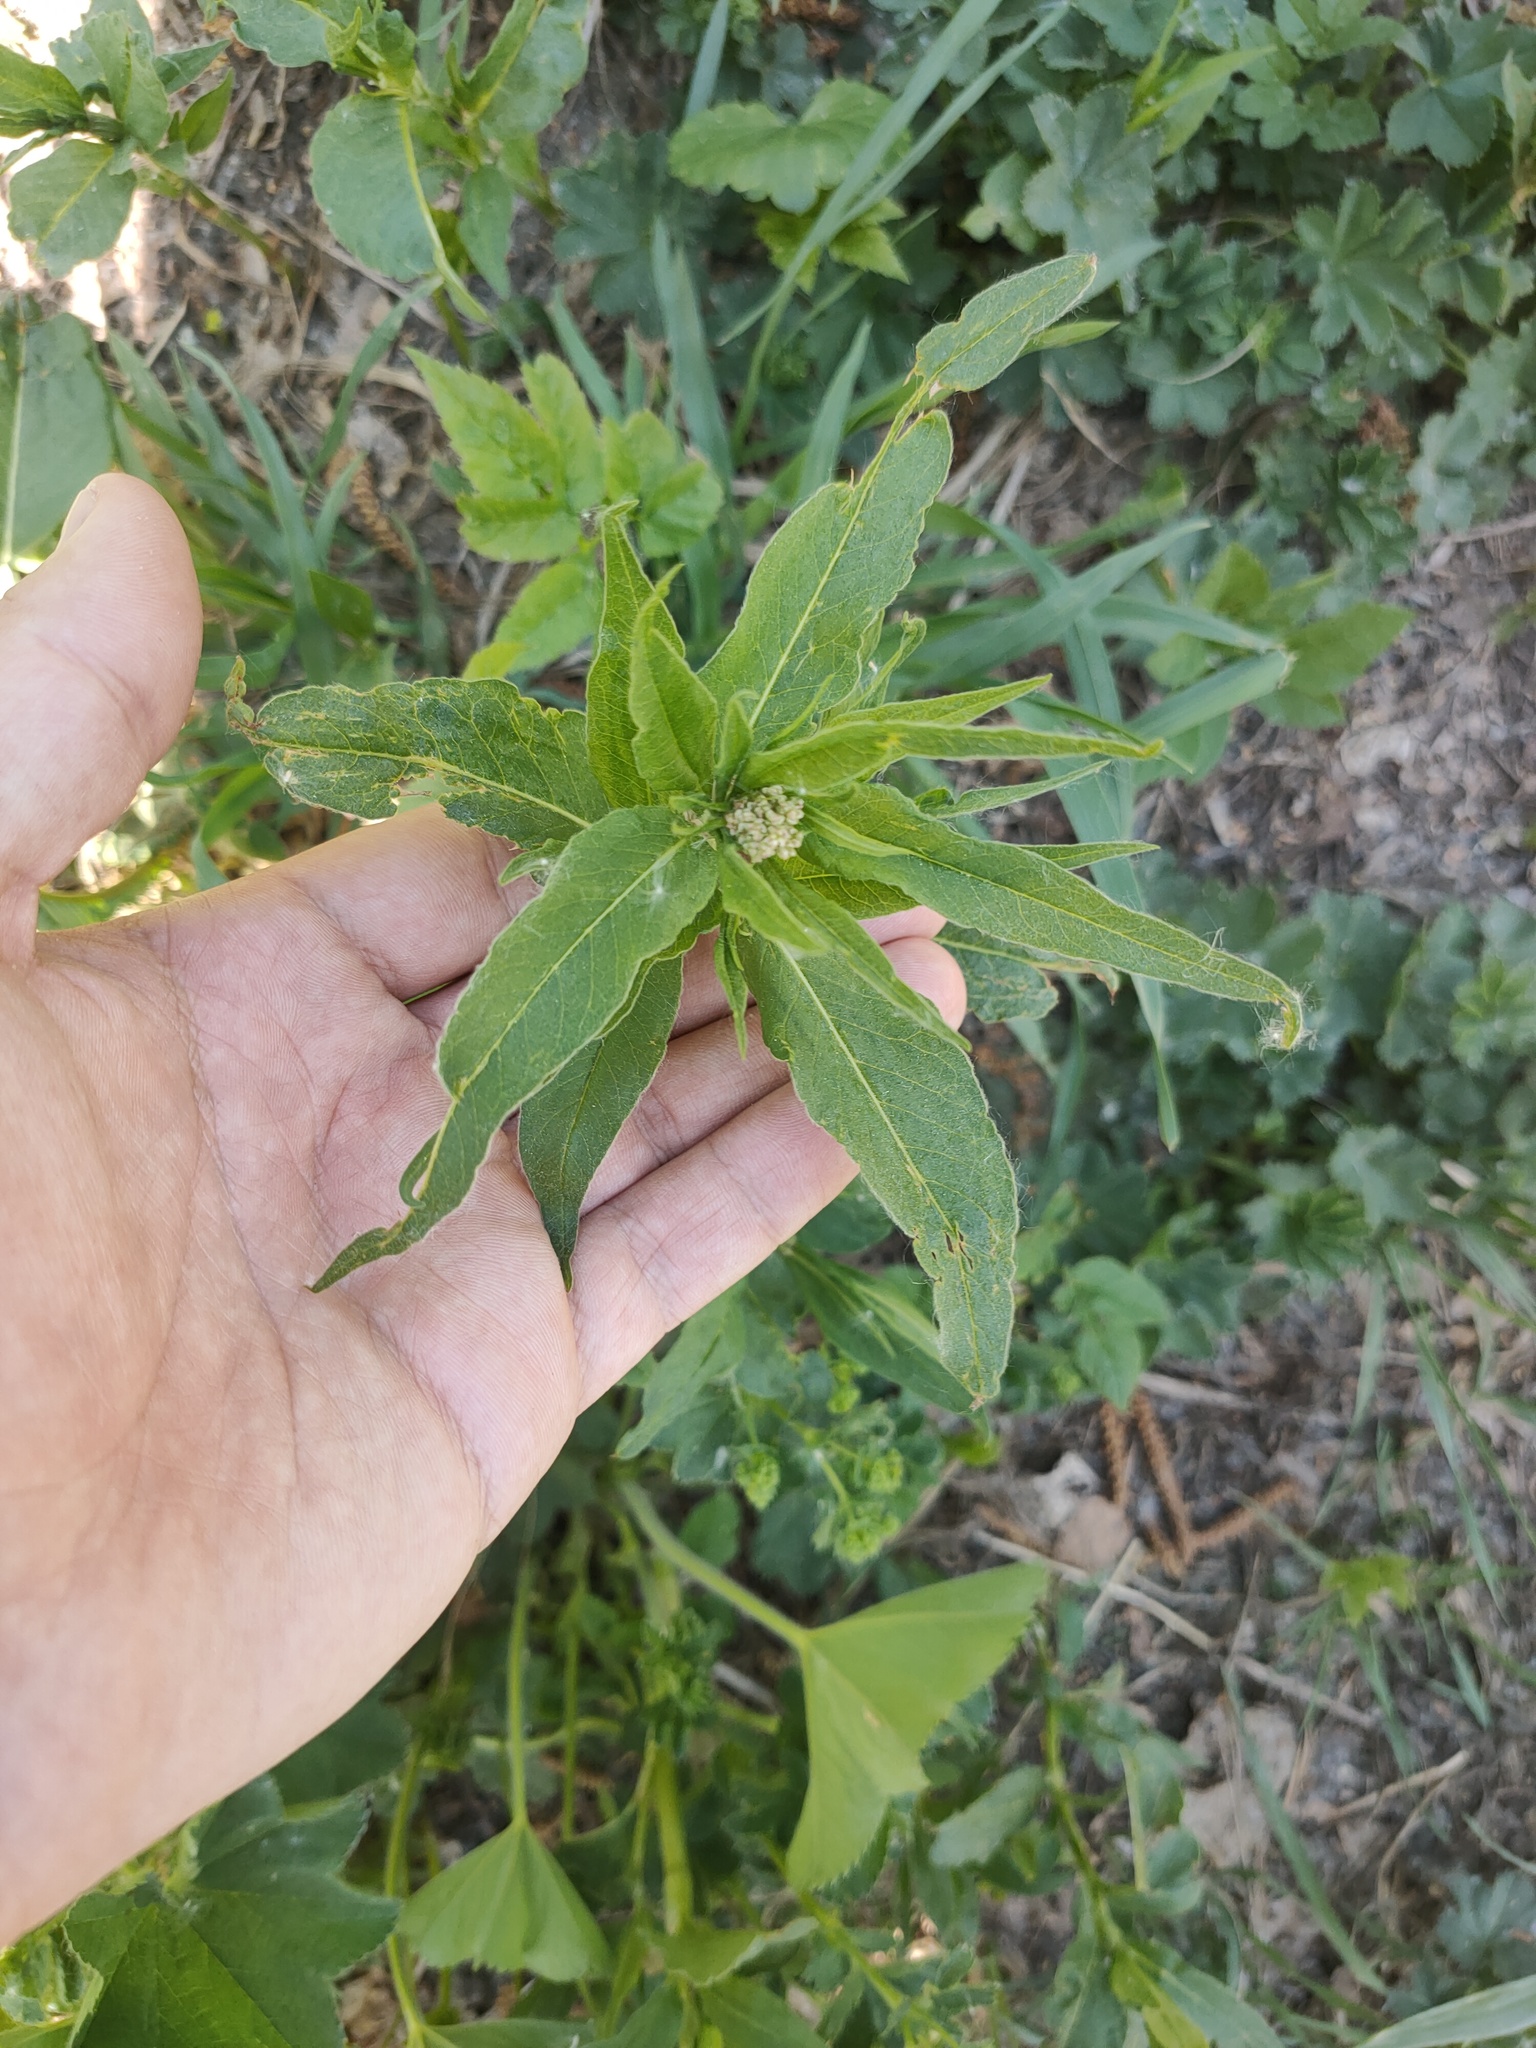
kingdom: Plantae
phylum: Tracheophyta
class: Magnoliopsida
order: Caryophyllales
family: Polygonaceae
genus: Koenigia
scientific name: Koenigia alpina
